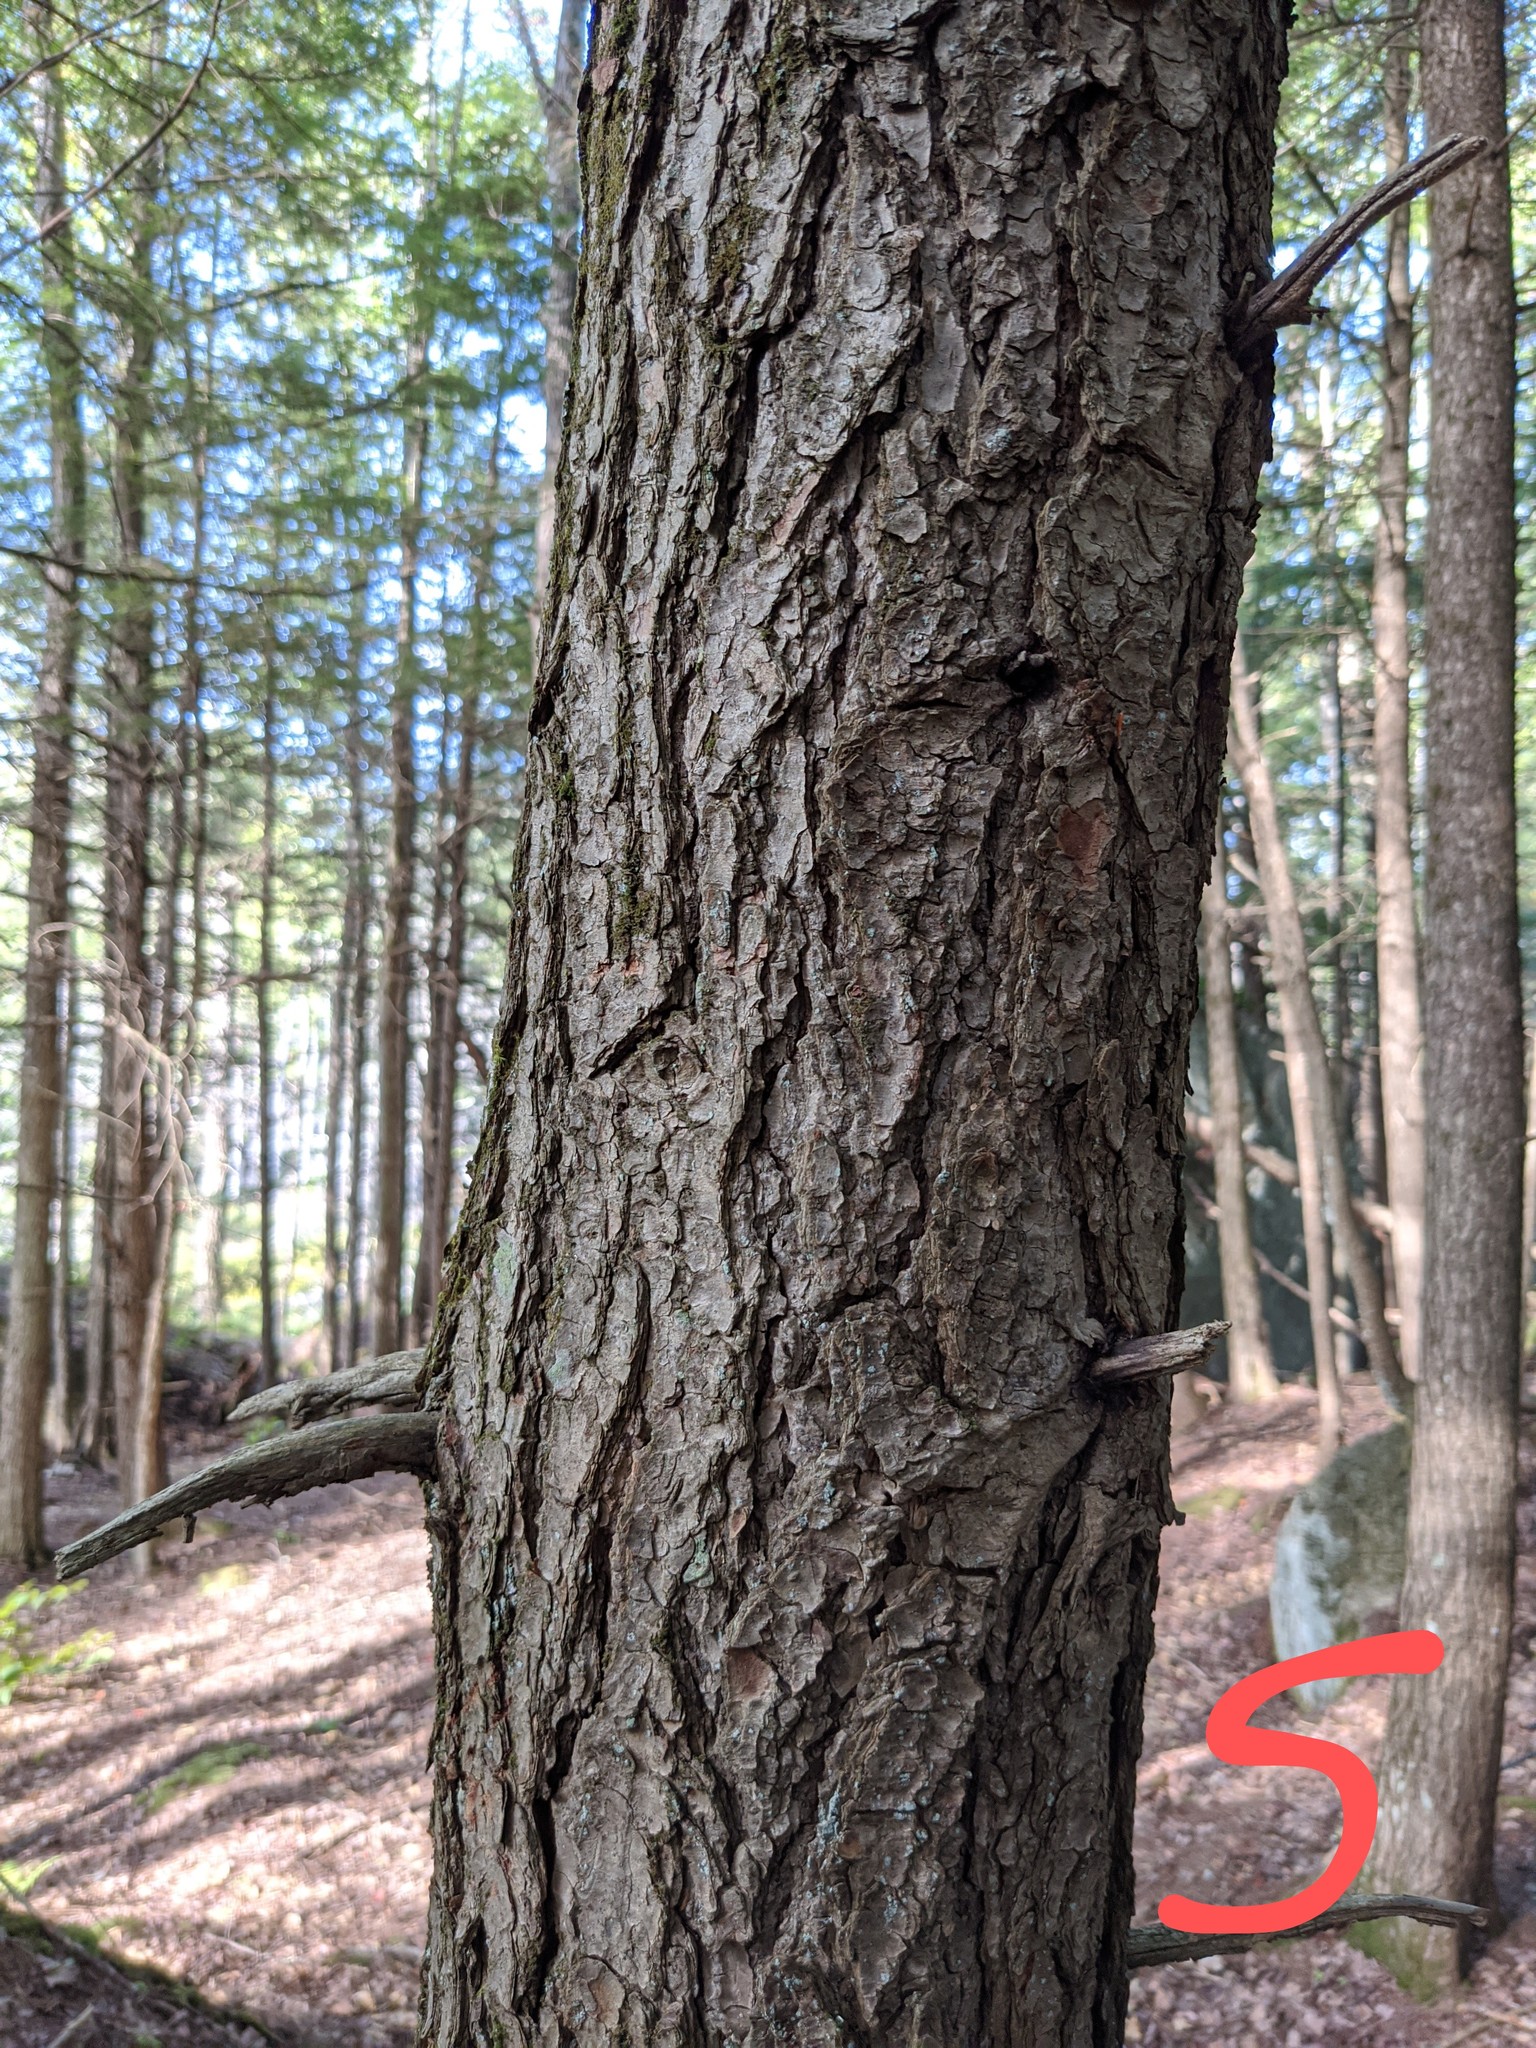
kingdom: Plantae
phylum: Tracheophyta
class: Pinopsida
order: Pinales
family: Pinaceae
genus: Tsuga
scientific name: Tsuga canadensis
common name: Eastern hemlock
